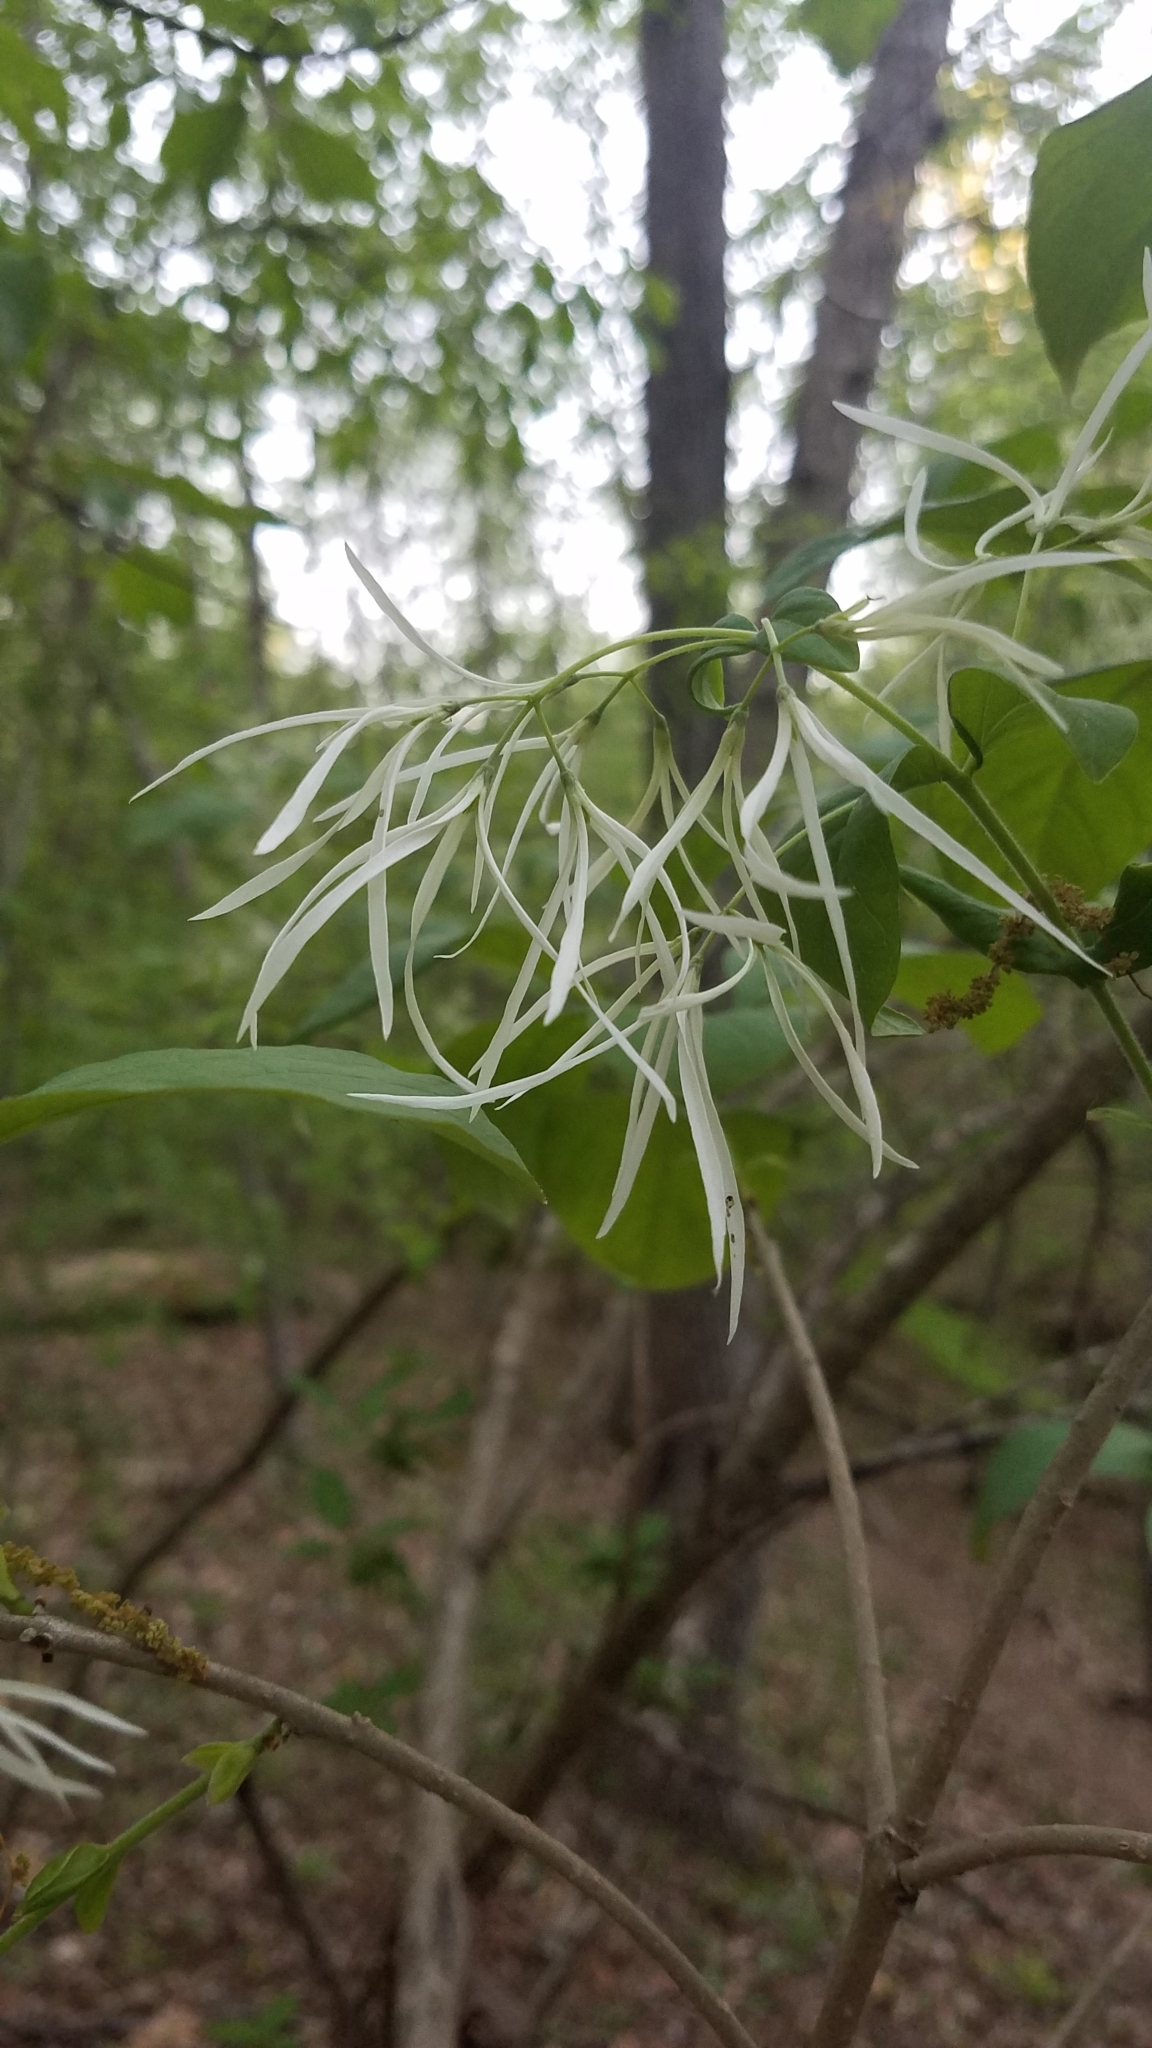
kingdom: Plantae
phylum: Tracheophyta
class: Magnoliopsida
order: Lamiales
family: Oleaceae
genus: Chionanthus
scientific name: Chionanthus virginicus
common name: American fringetree
